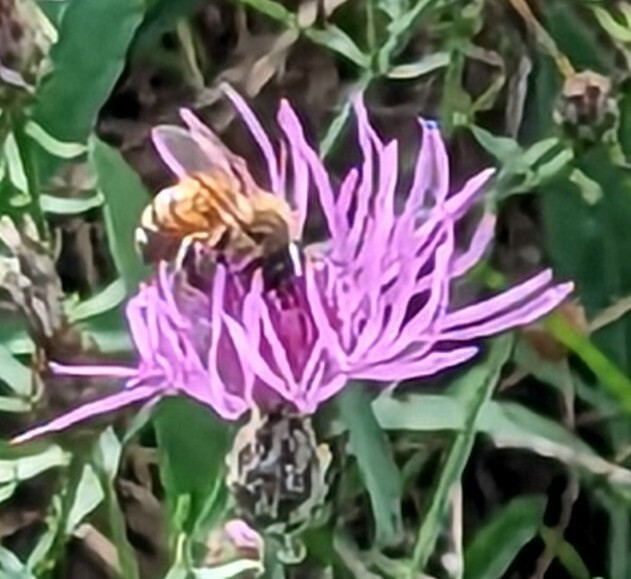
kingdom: Animalia
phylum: Arthropoda
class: Insecta
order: Hymenoptera
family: Apidae
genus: Apis
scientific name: Apis mellifera
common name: Honey bee
